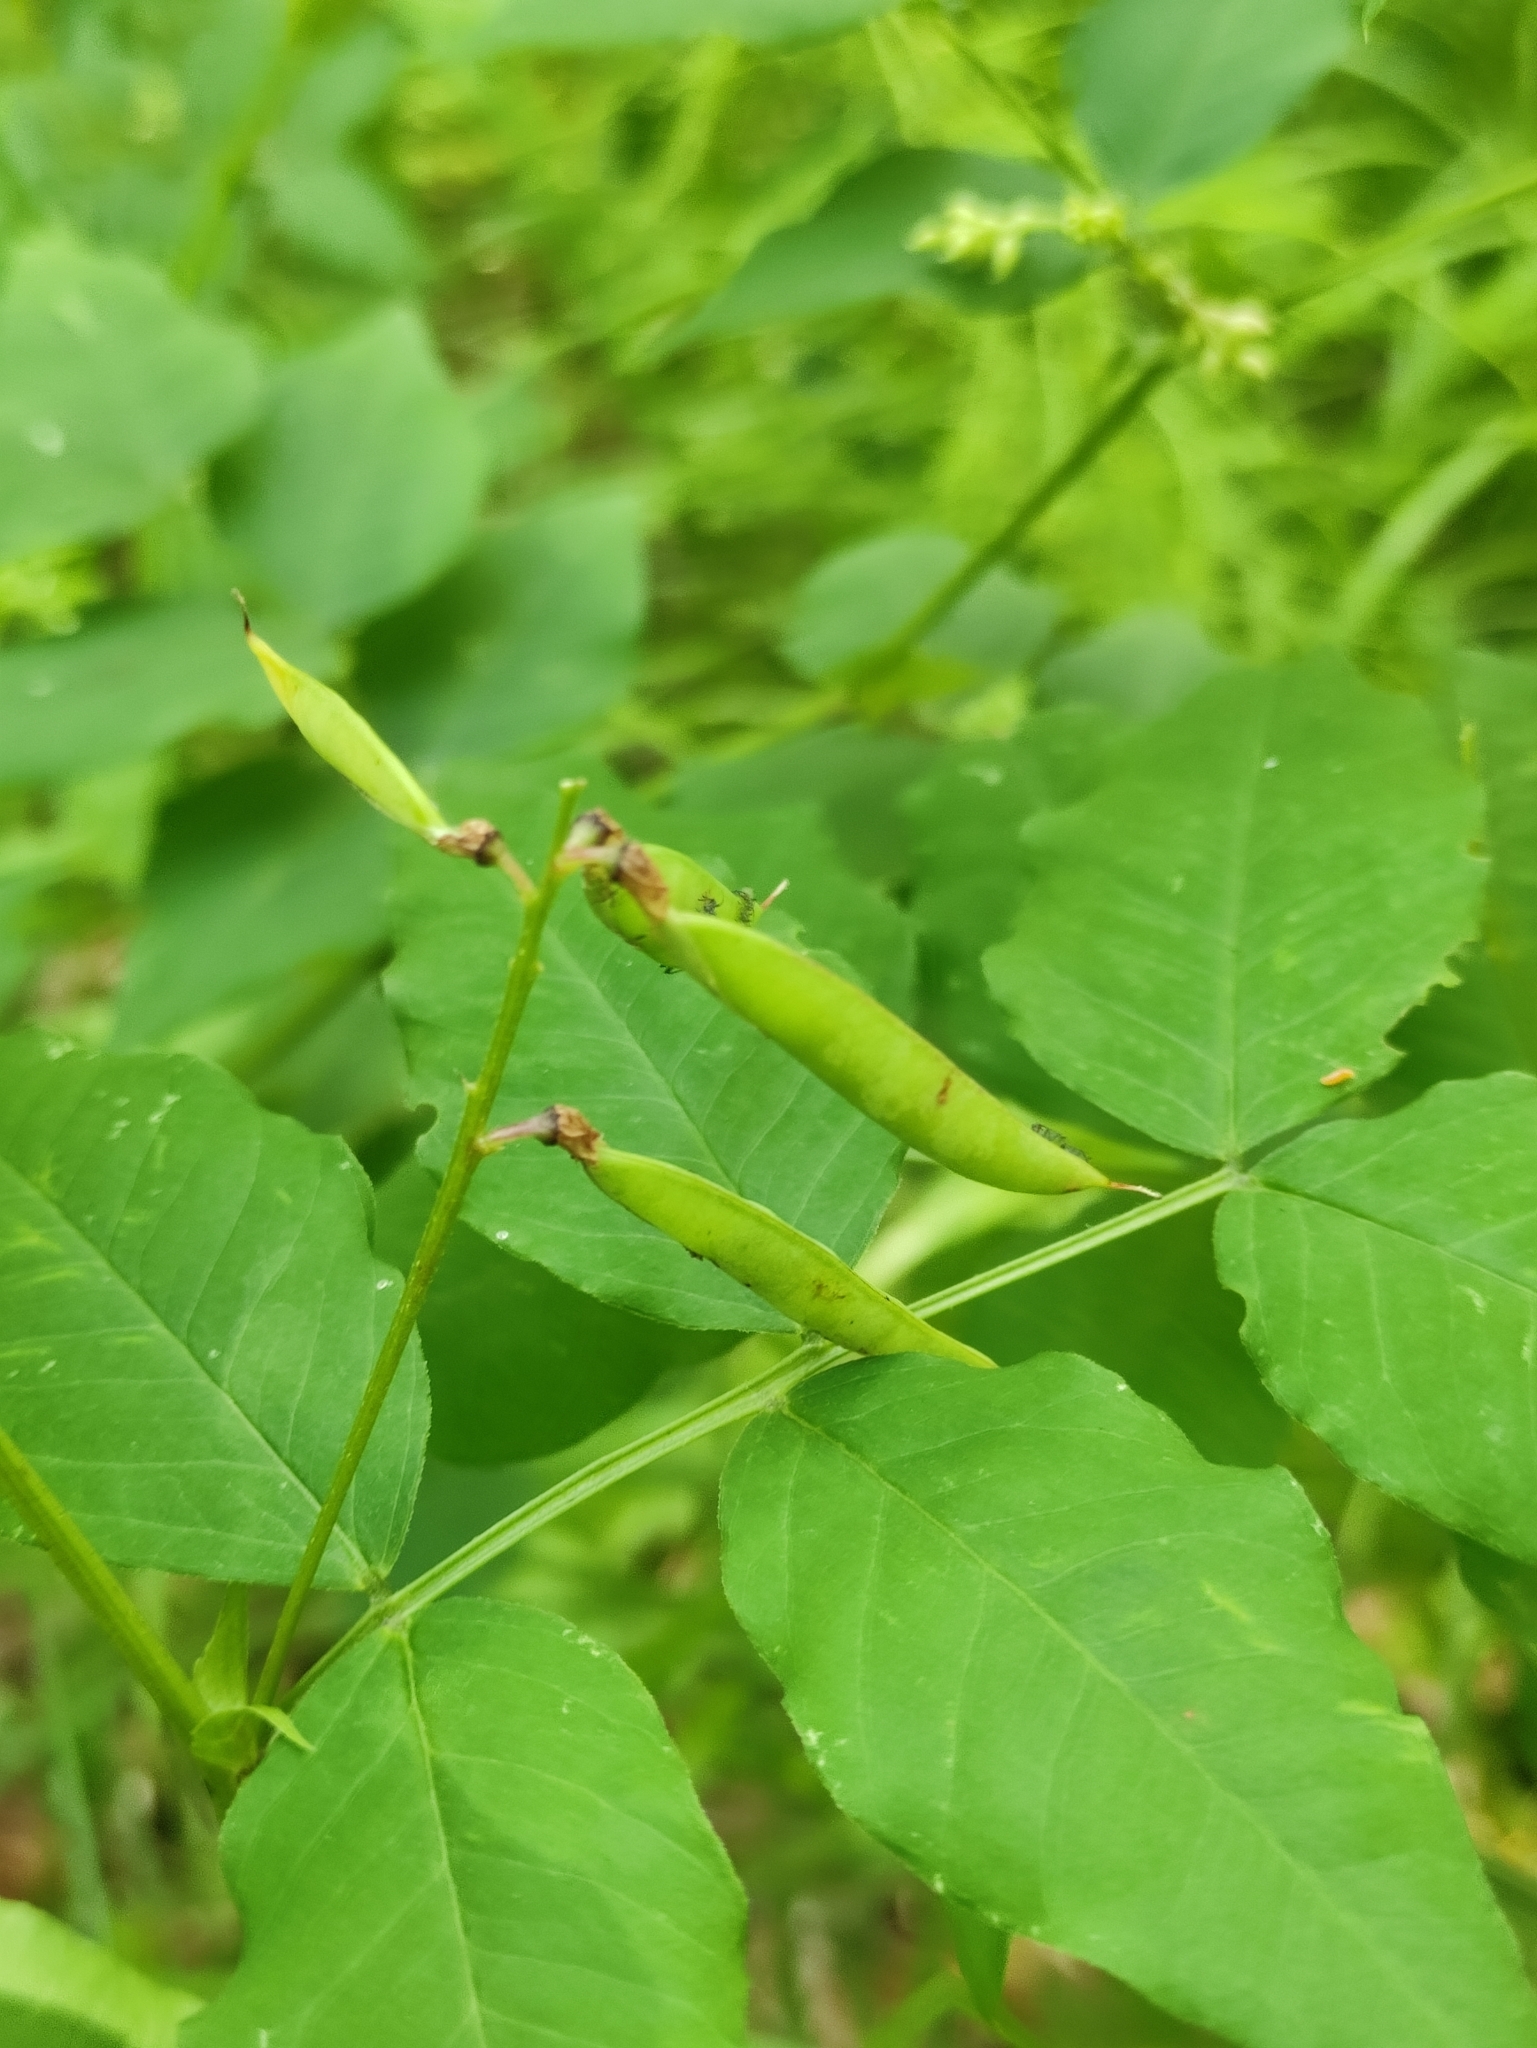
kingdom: Plantae
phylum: Tracheophyta
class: Magnoliopsida
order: Fabales
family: Fabaceae
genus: Vicia
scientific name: Vicia ramuliflora
